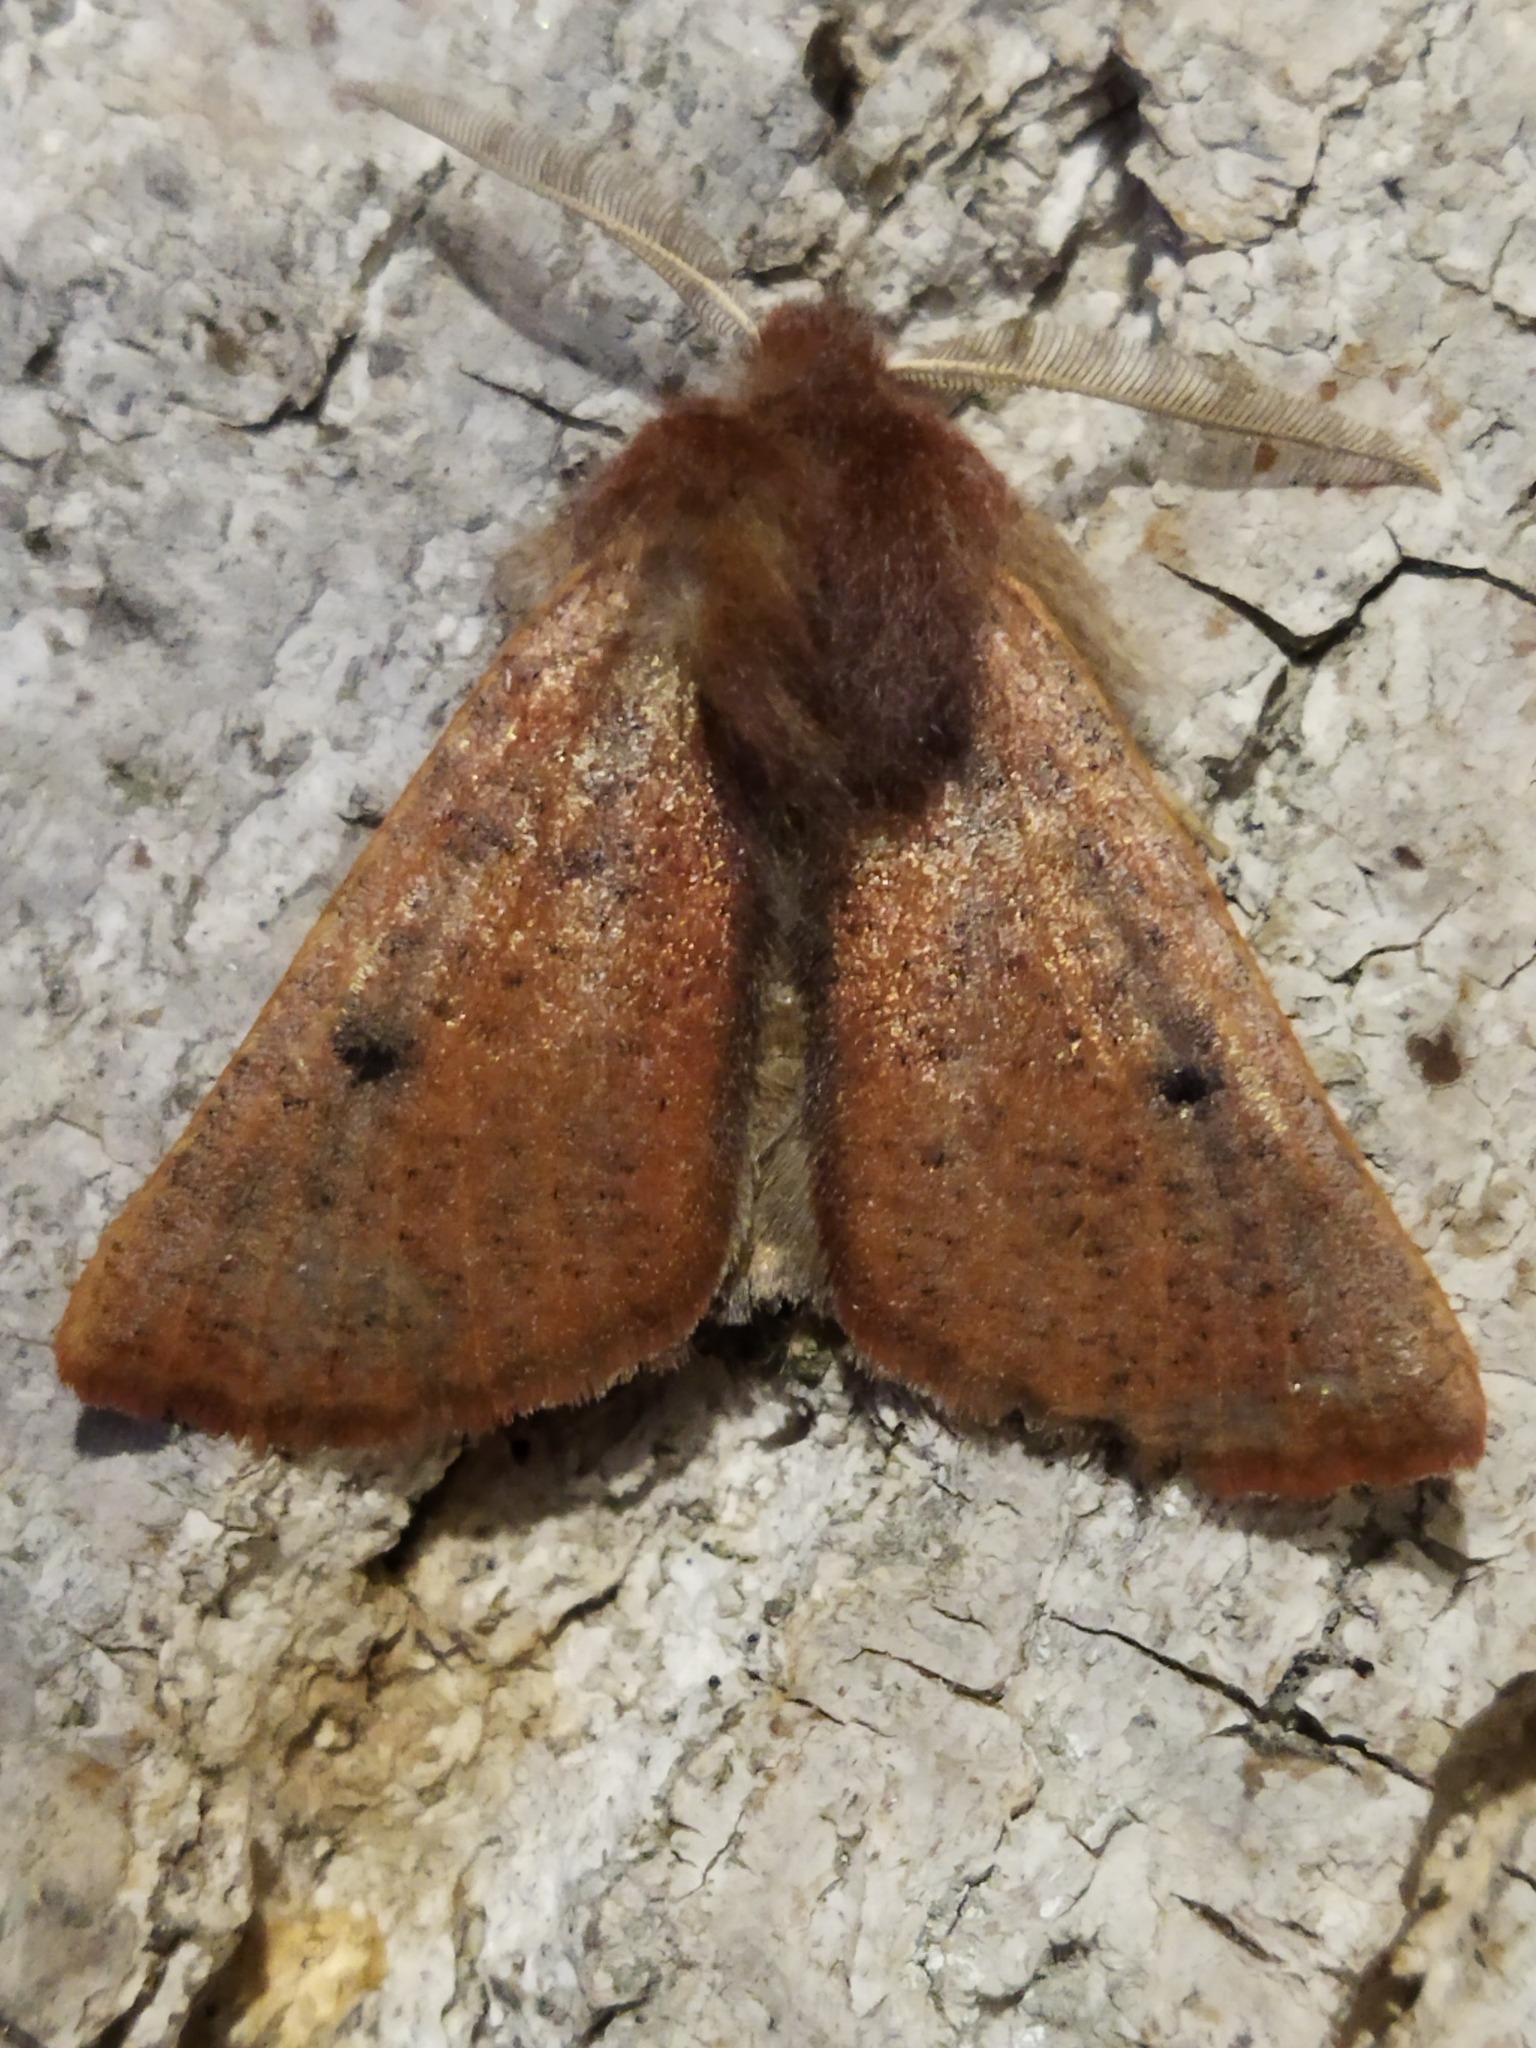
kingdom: Animalia
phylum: Arthropoda
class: Insecta
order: Lepidoptera
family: Geometridae
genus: Dasycorsa
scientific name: Dasycorsa modesta
